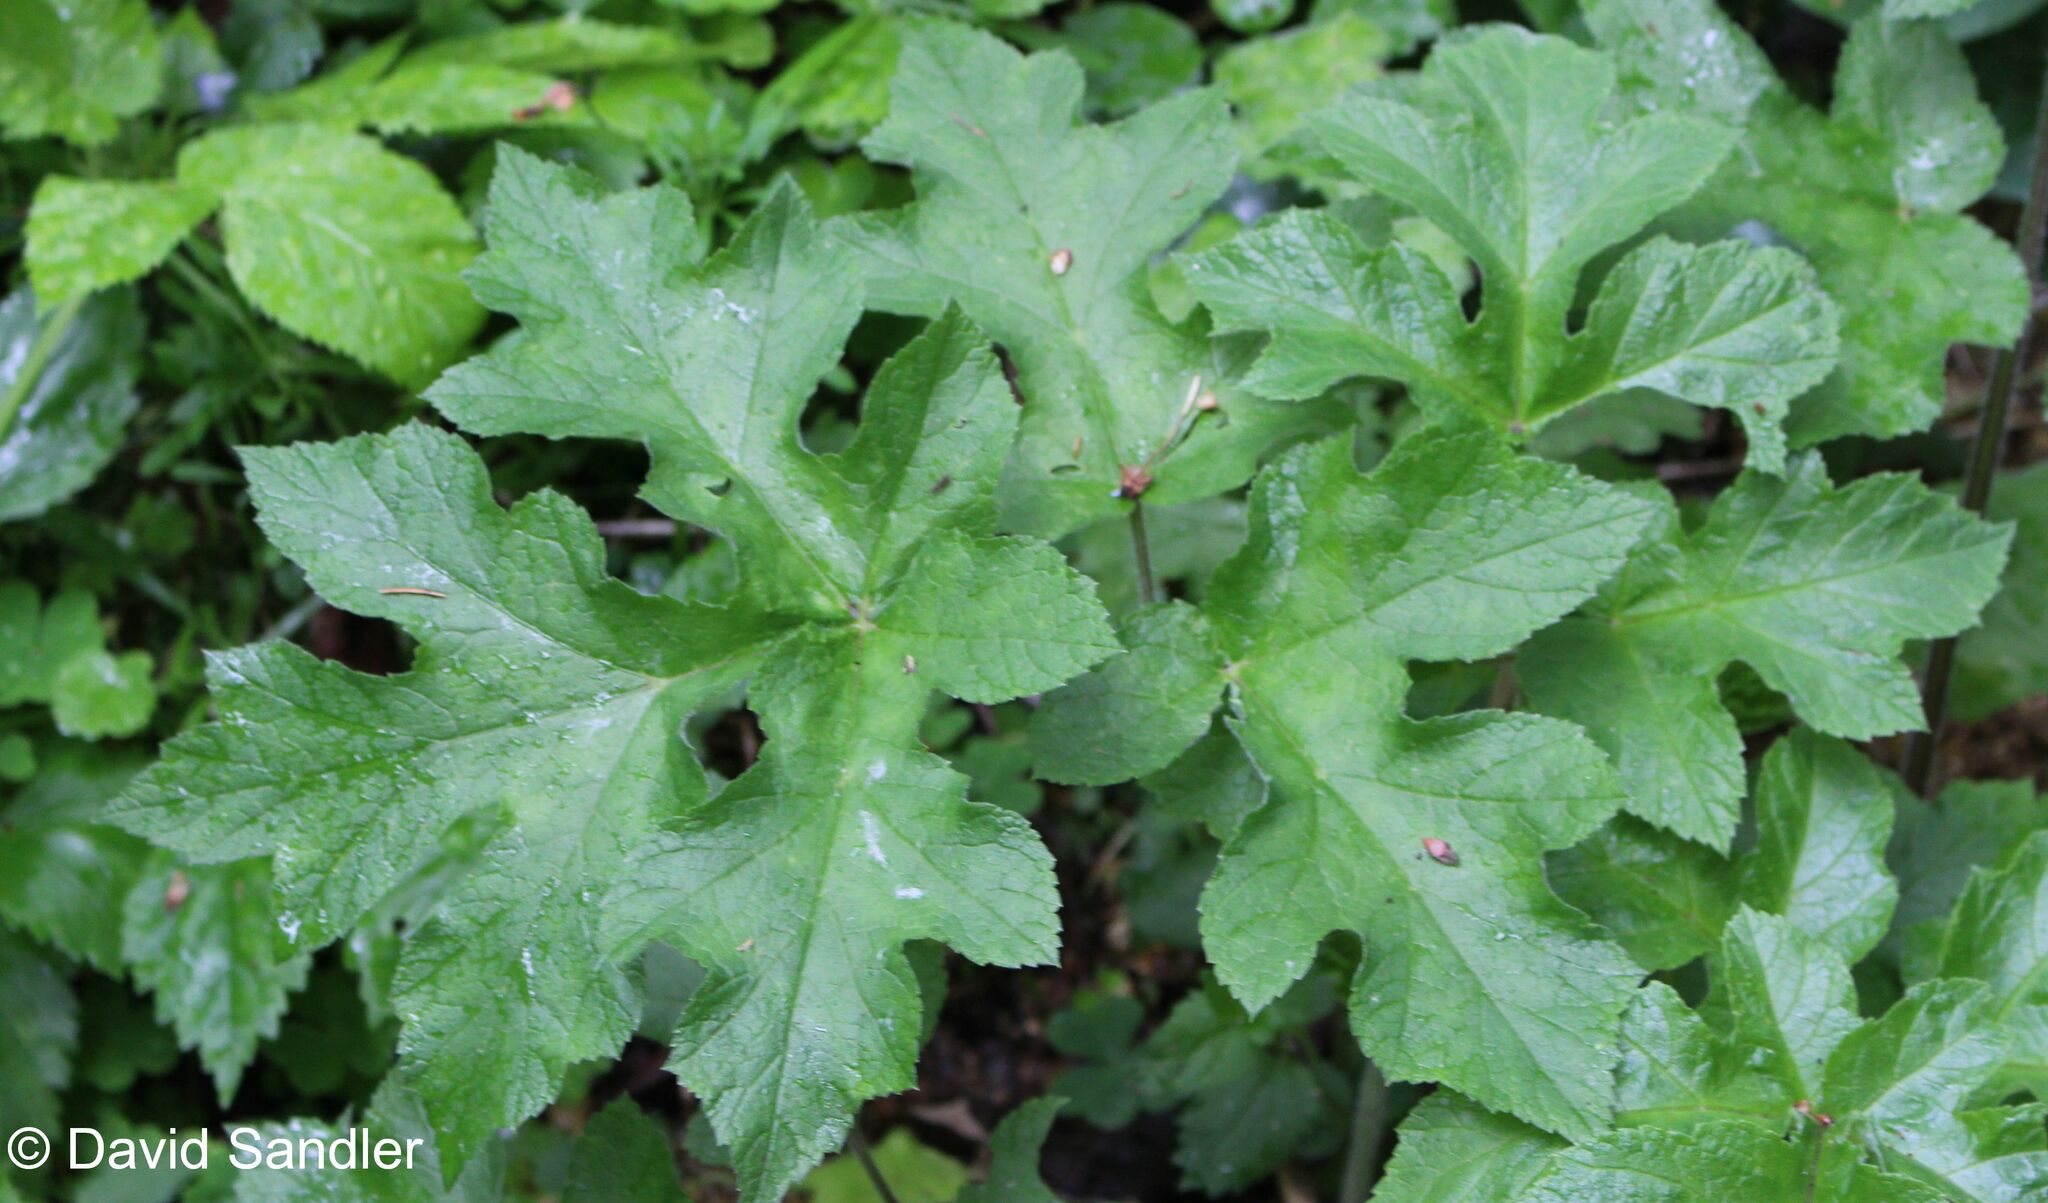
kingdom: Plantae
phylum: Tracheophyta
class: Magnoliopsida
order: Apiales
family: Apiaceae
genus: Heracleum
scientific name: Heracleum sphondylium
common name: Hogweed
